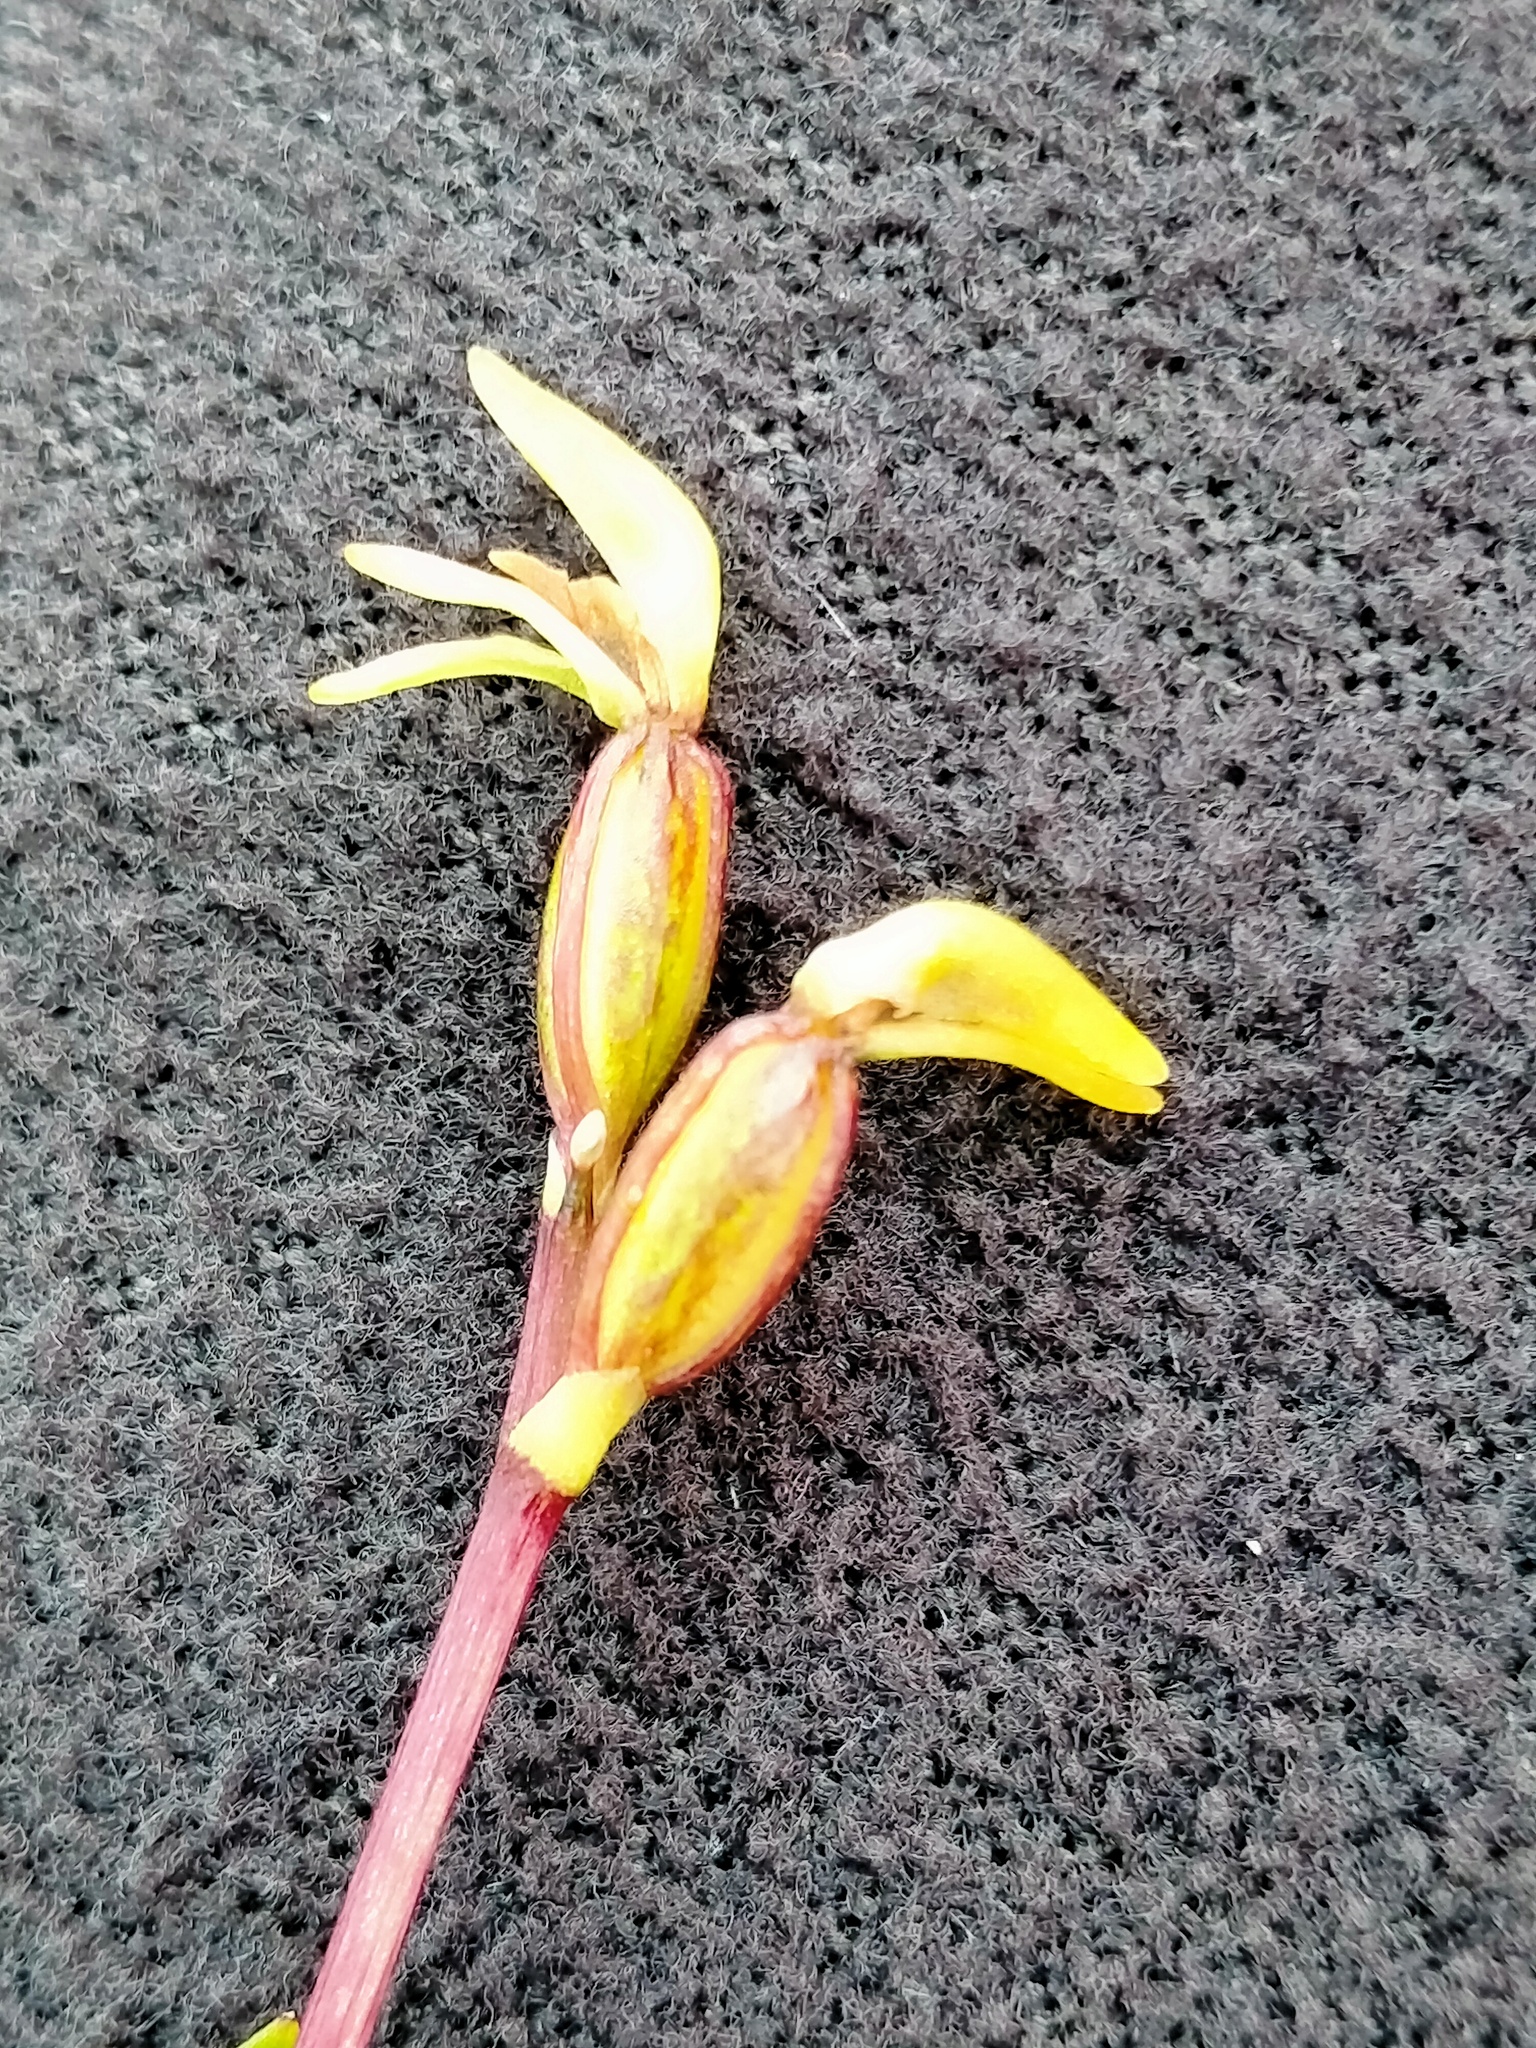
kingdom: Plantae
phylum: Tracheophyta
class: Liliopsida
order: Asparagales
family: Orchidaceae
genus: Townsonia
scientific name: Townsonia deflexa
